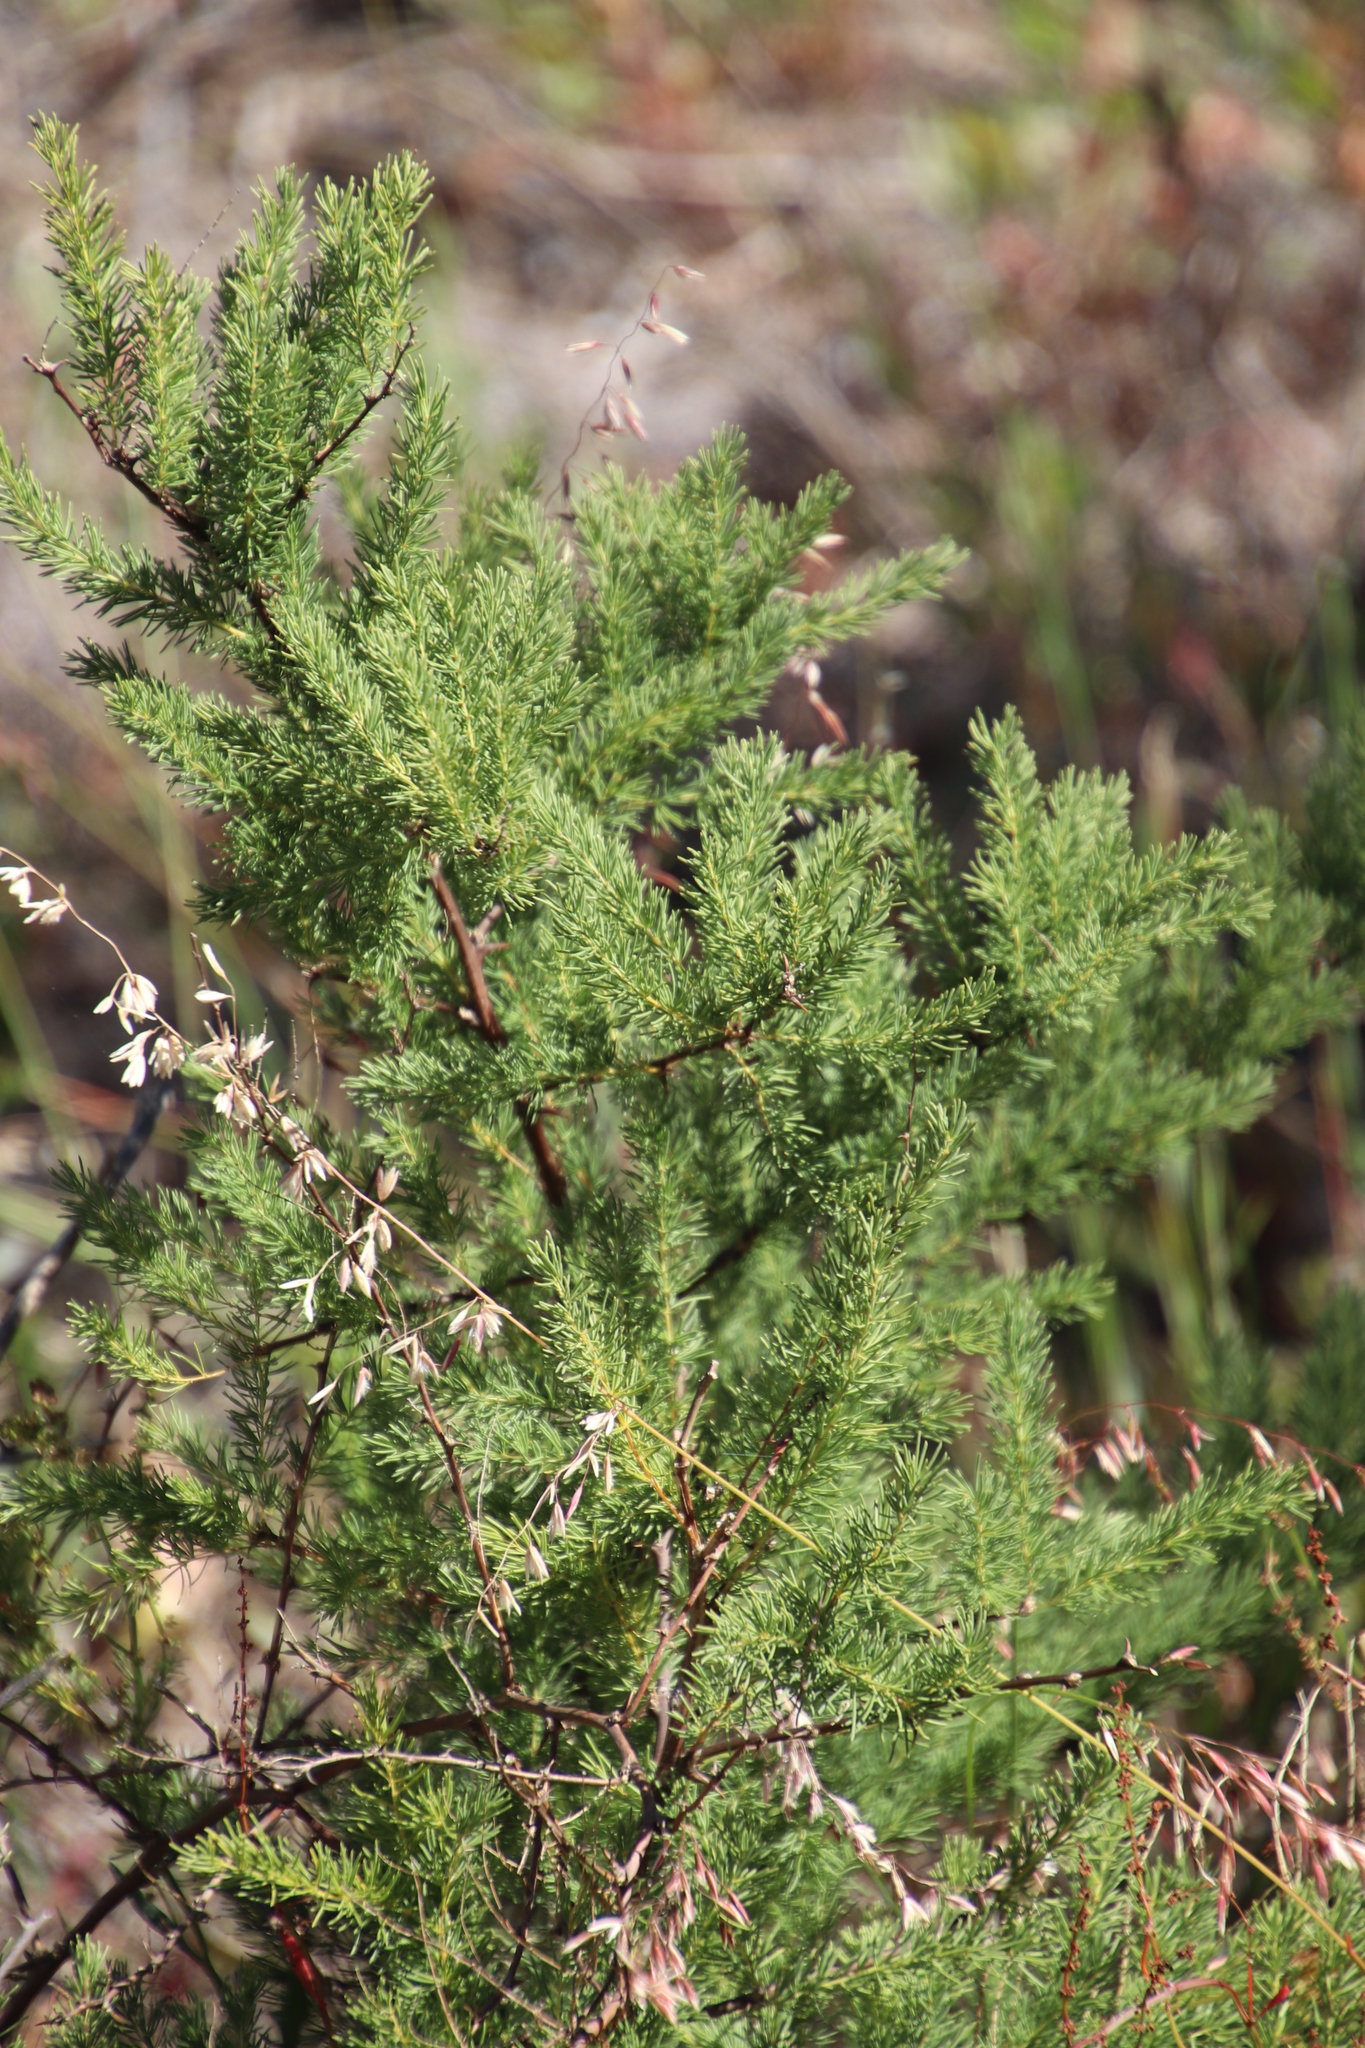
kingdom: Plantae
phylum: Tracheophyta
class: Liliopsida
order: Asparagales
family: Asparagaceae
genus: Asparagus
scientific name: Asparagus rubicundus
